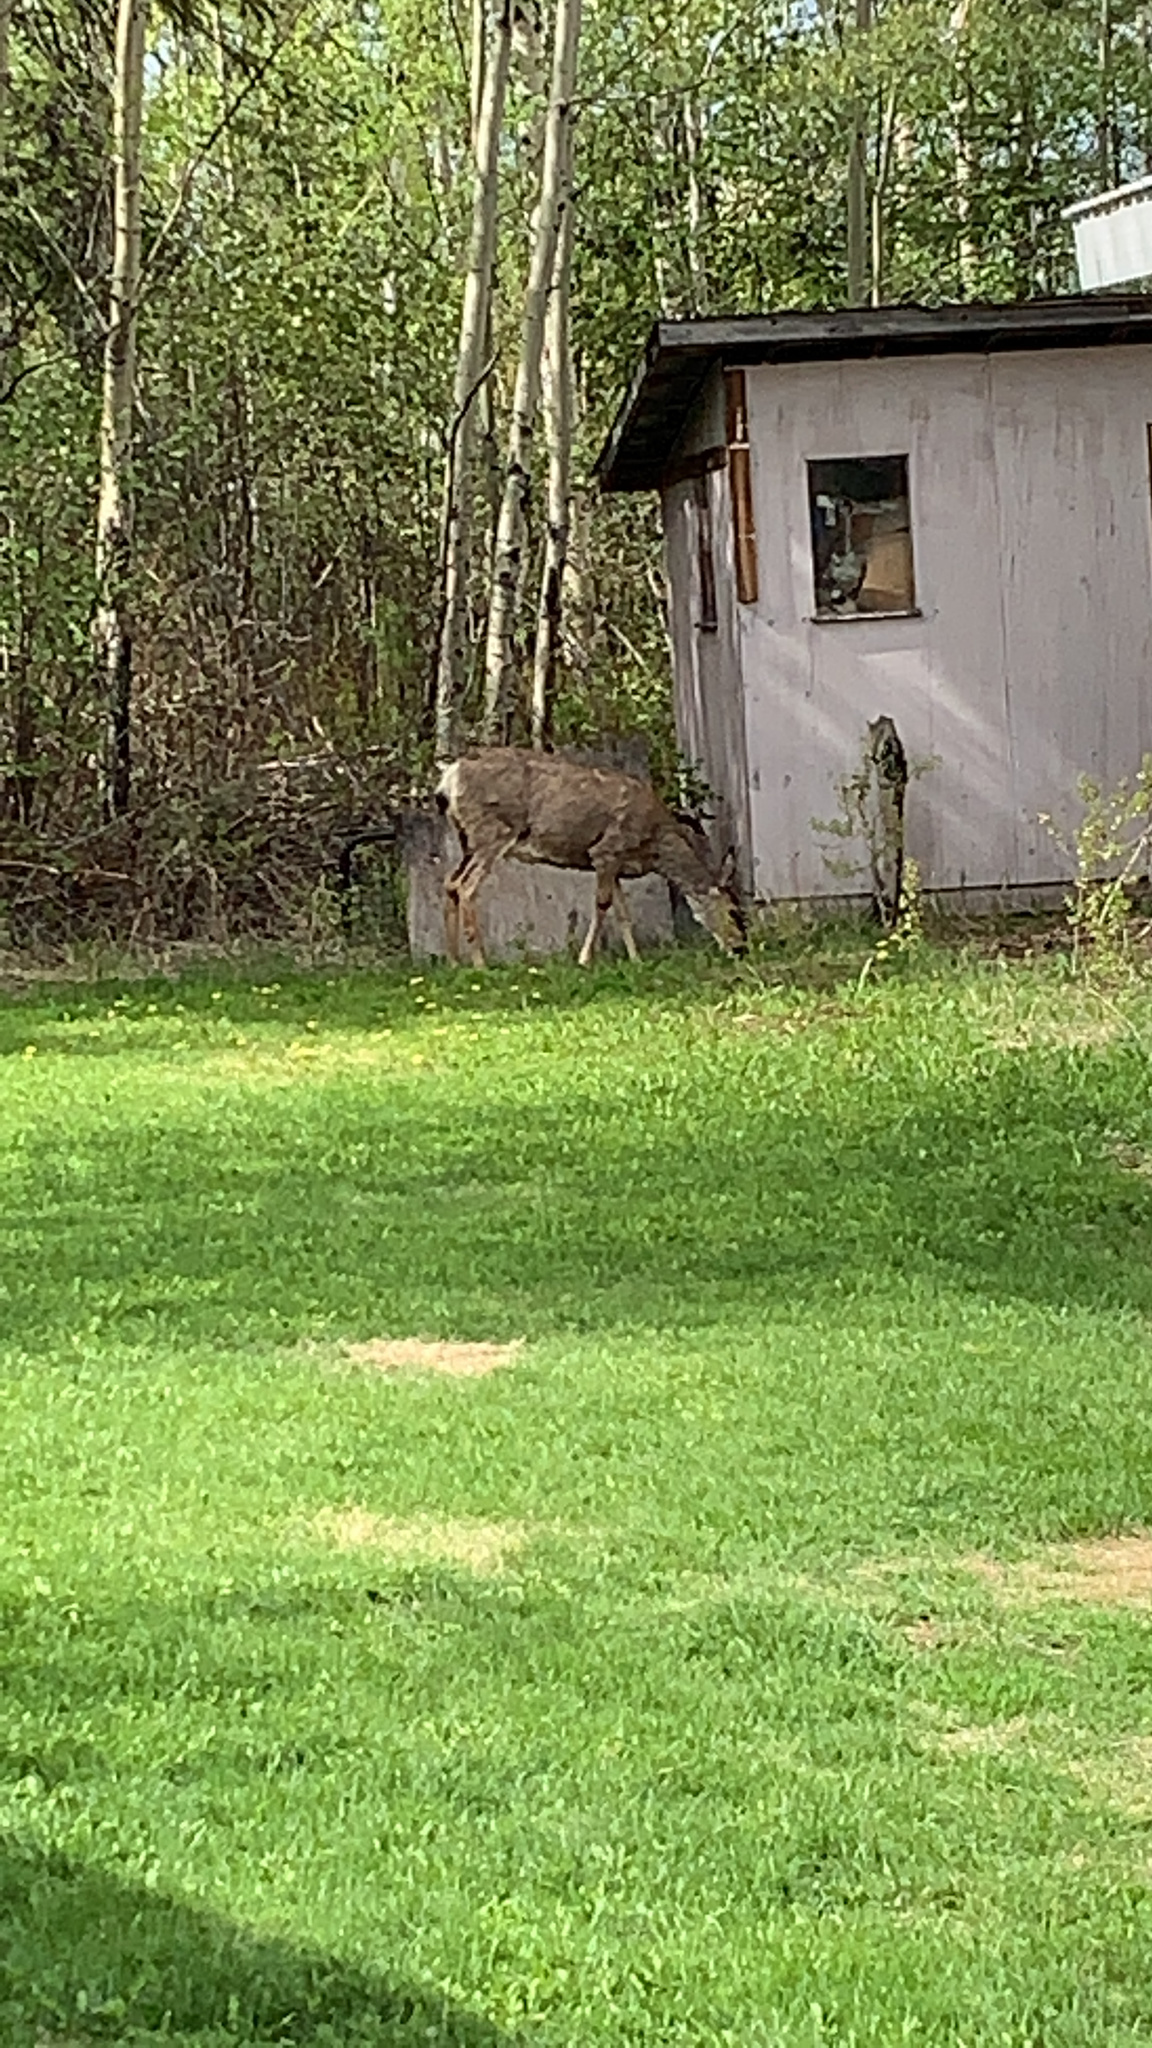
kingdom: Animalia
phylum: Chordata
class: Mammalia
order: Artiodactyla
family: Cervidae
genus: Odocoileus
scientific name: Odocoileus hemionus
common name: Mule deer
